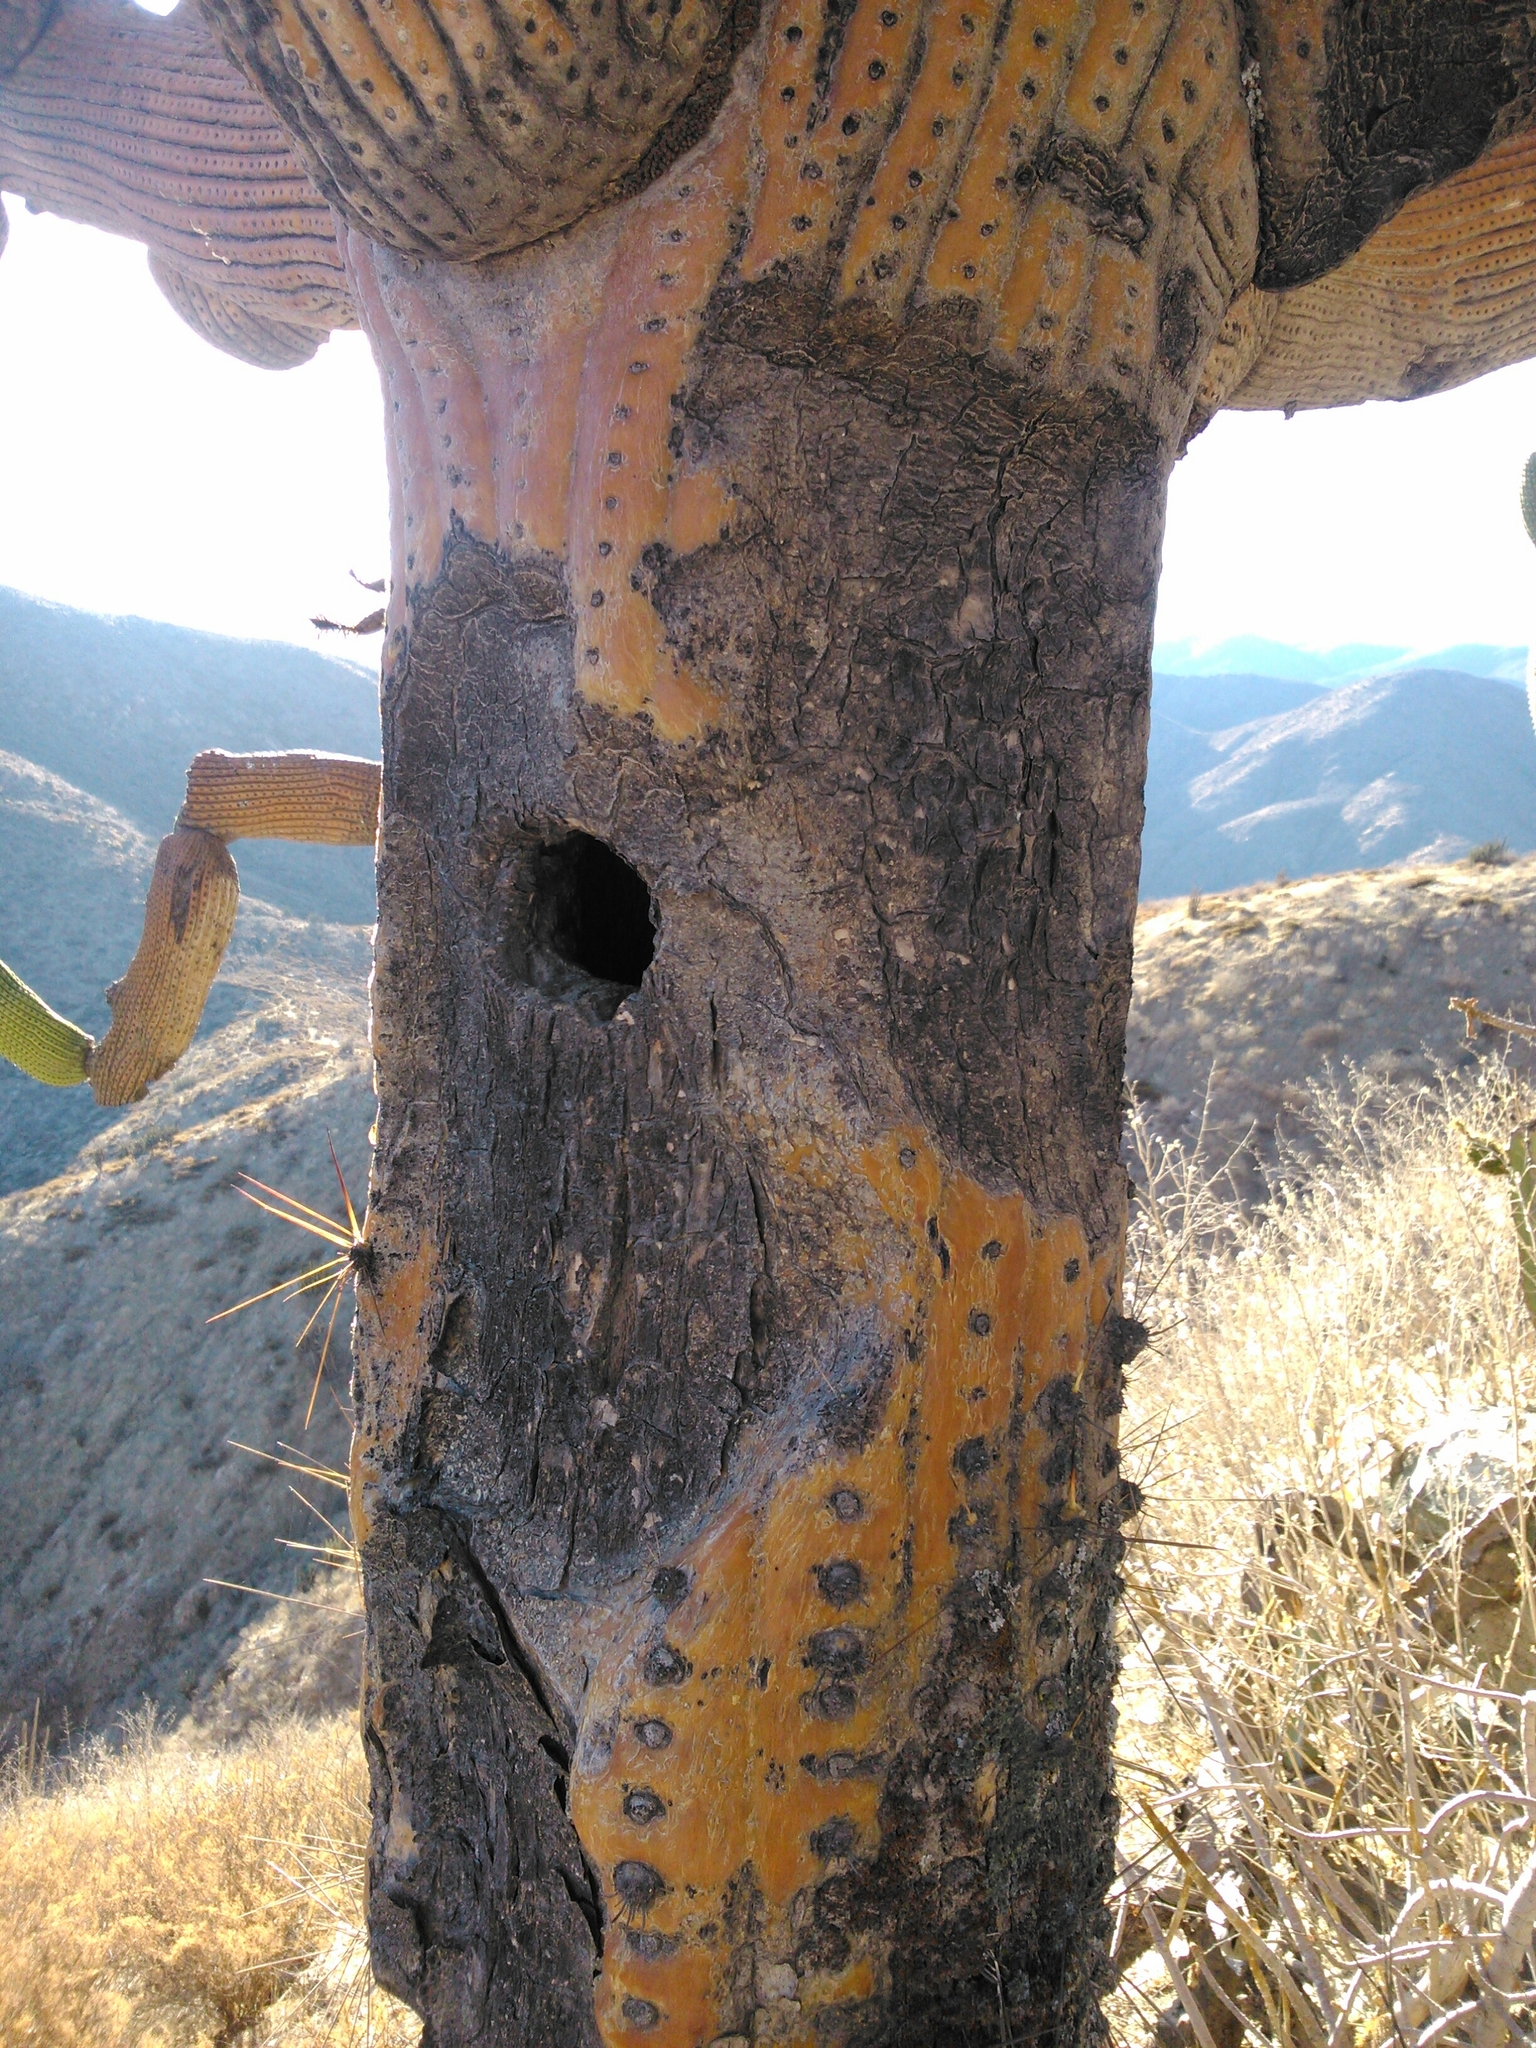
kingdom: Plantae
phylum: Tracheophyta
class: Magnoliopsida
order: Caryophyllales
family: Cactaceae
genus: Browningia
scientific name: Browningia candelaris
